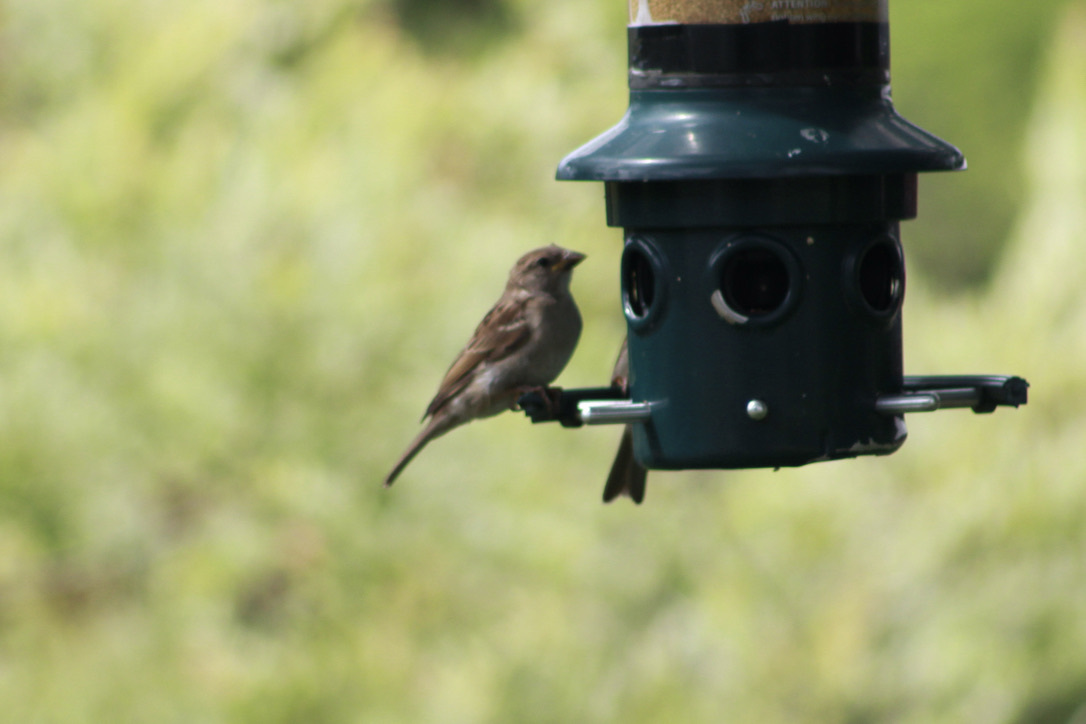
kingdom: Animalia
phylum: Chordata
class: Aves
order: Passeriformes
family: Passeridae
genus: Passer
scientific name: Passer domesticus
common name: House sparrow
